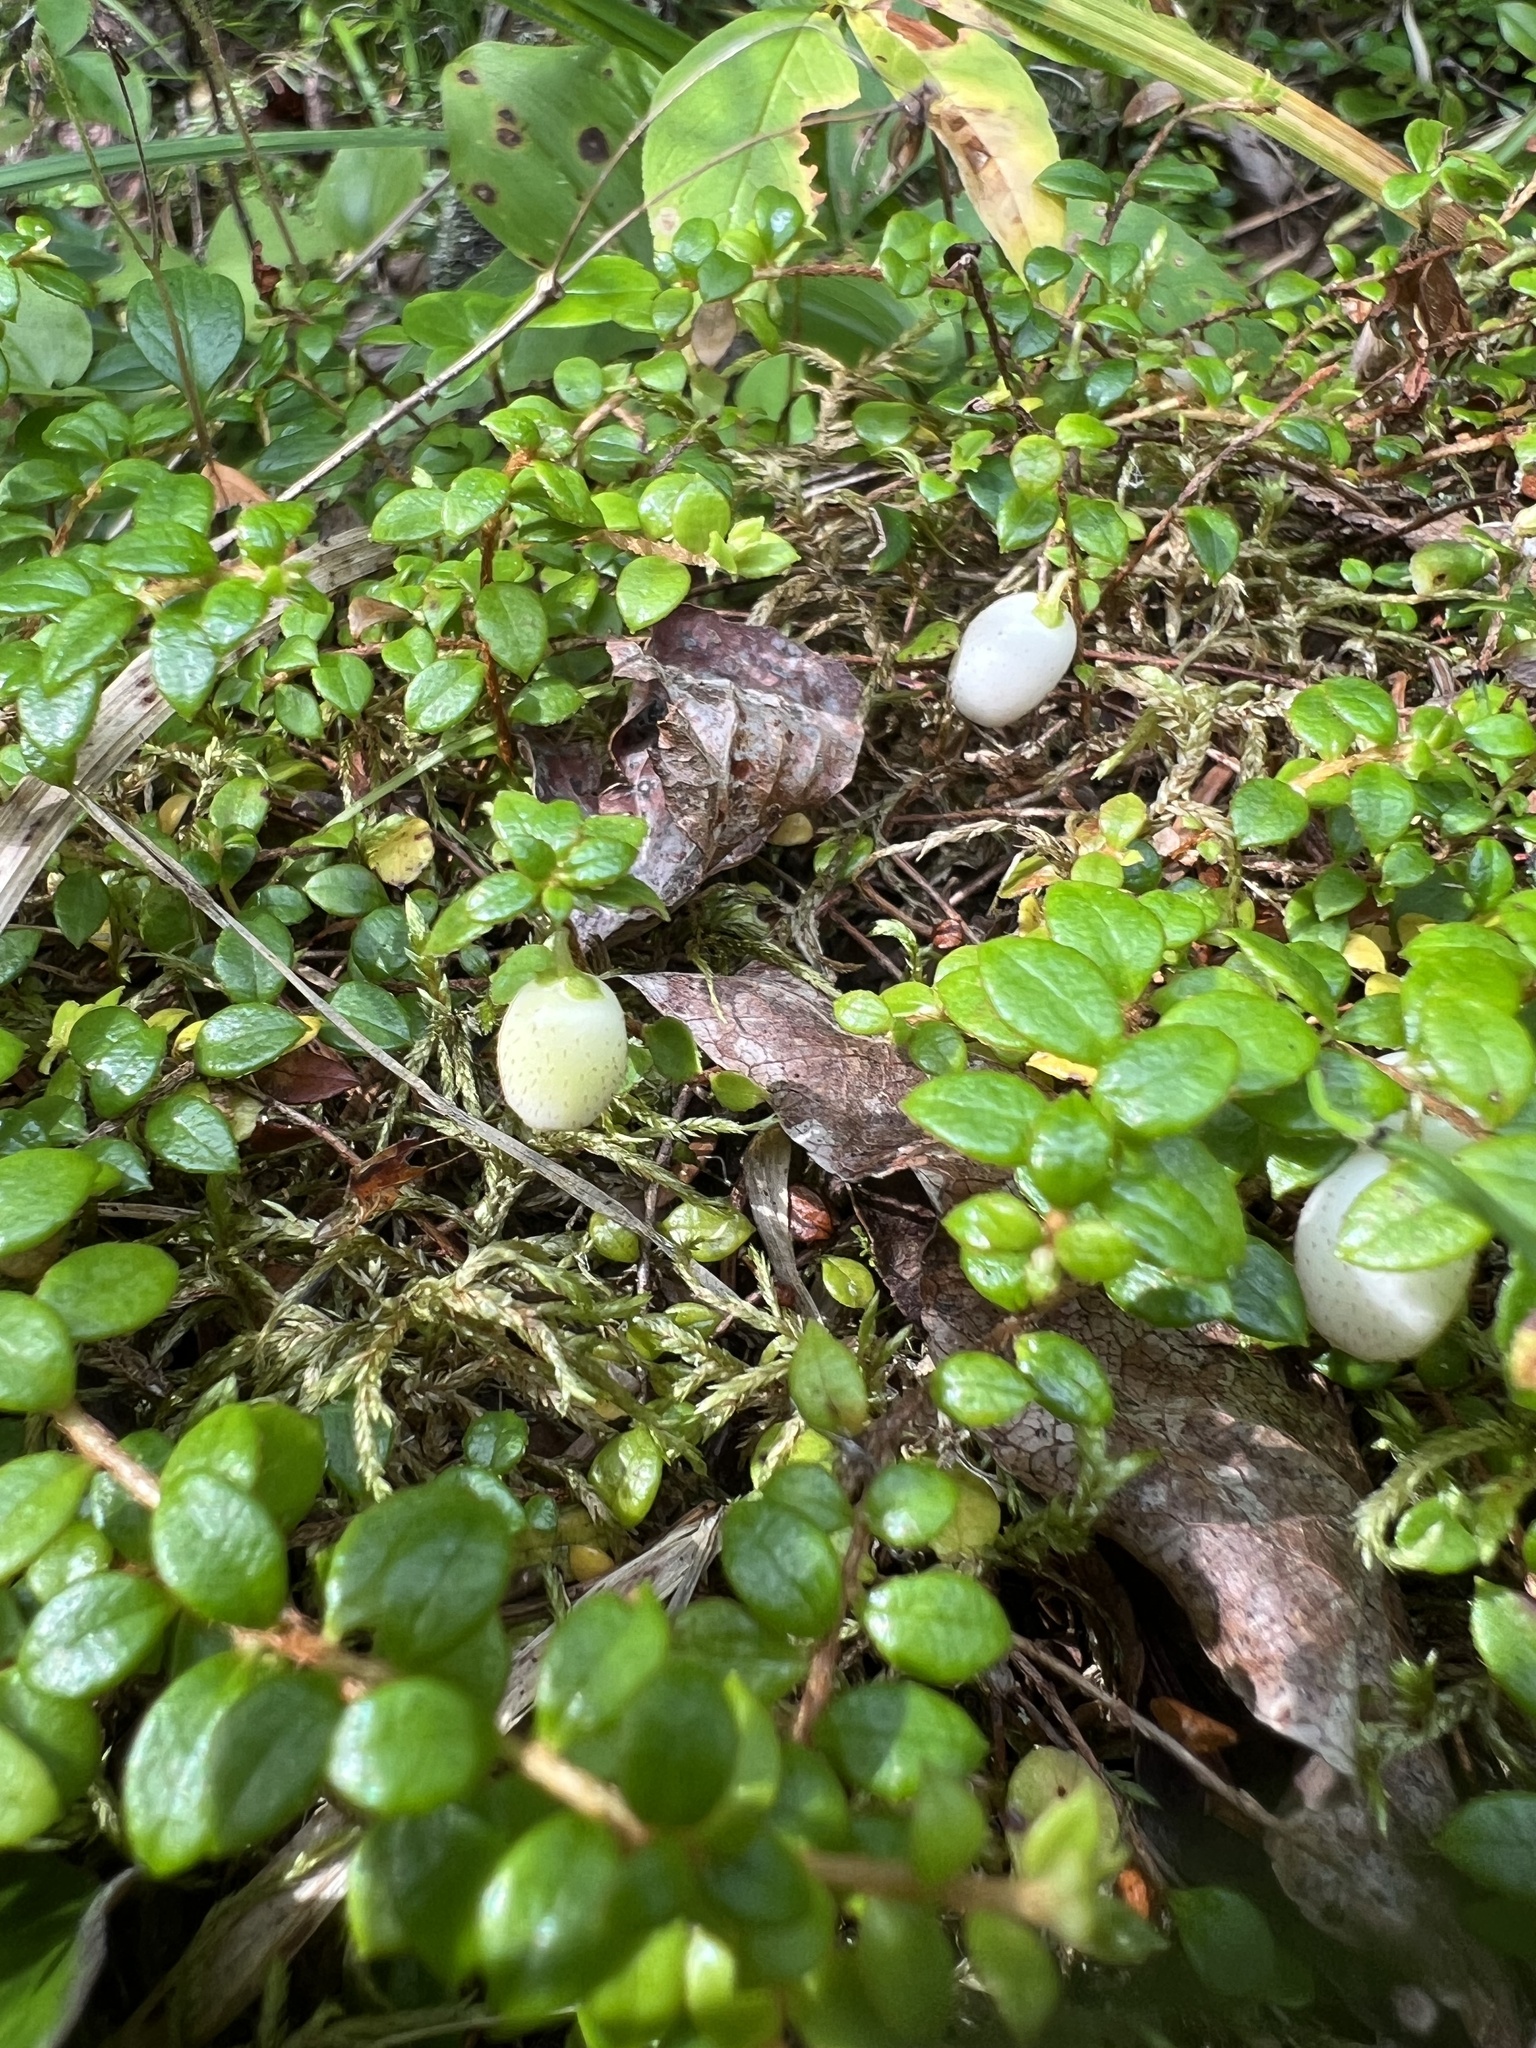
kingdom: Plantae
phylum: Tracheophyta
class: Magnoliopsida
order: Ericales
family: Ericaceae
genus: Gaultheria
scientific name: Gaultheria hispidula
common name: Cancer wintergreen
